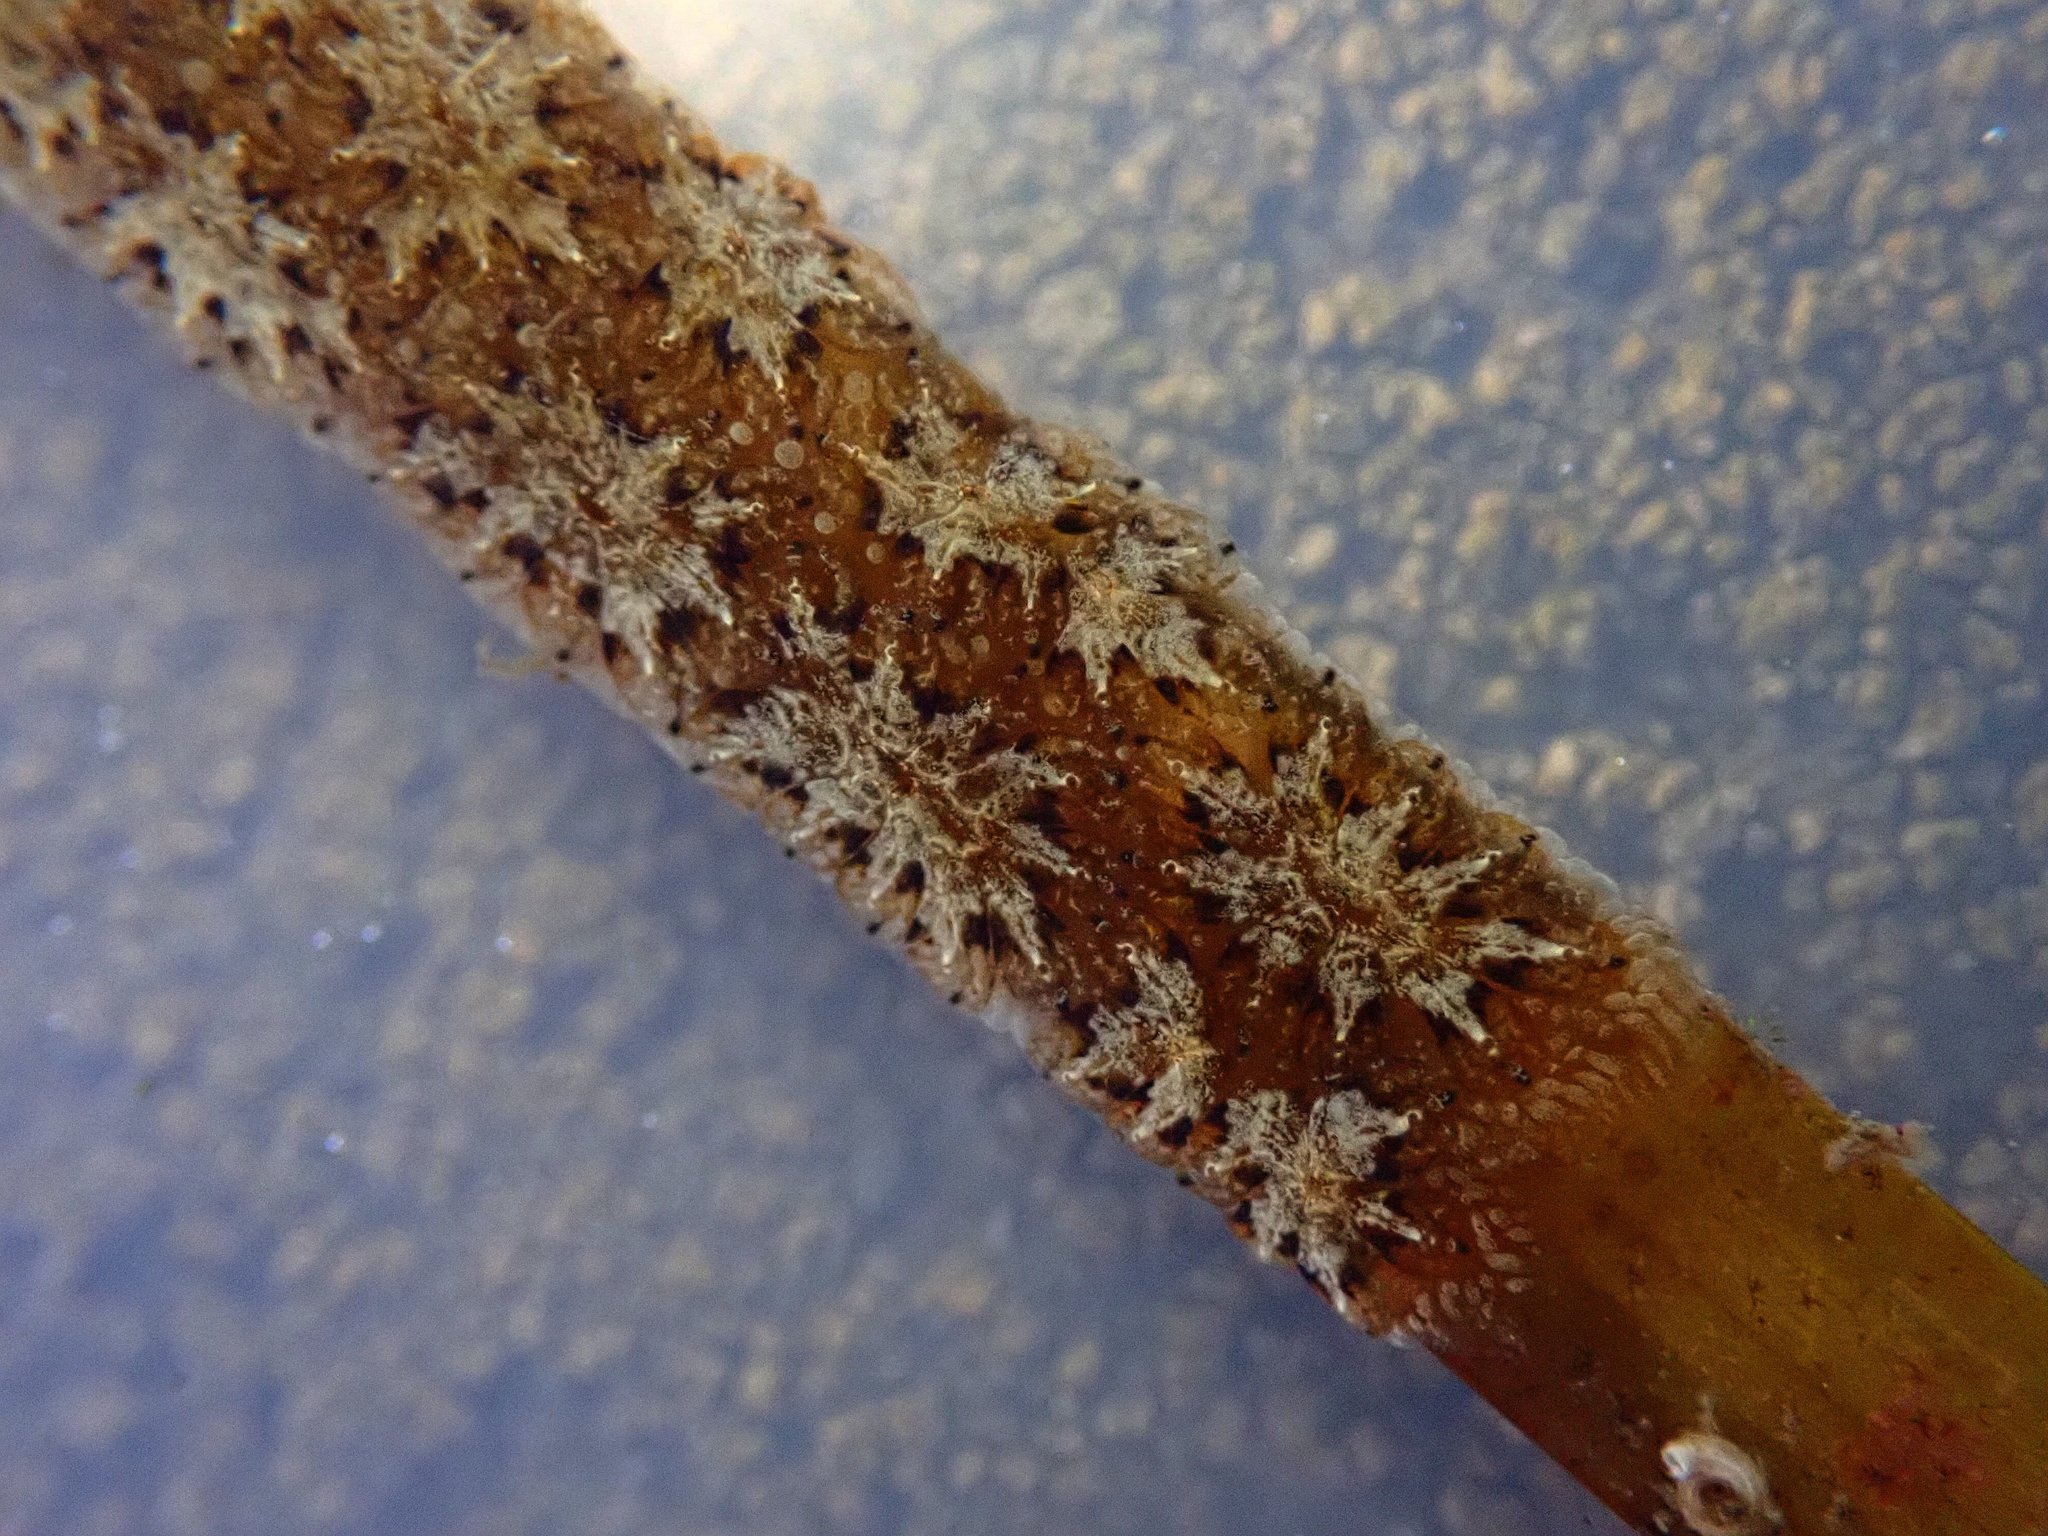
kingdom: Animalia
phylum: Chordata
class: Ascidiacea
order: Stolidobranchia
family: Styelidae
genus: Botryllus
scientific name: Botryllus schlosseri
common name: Golden star tunicate
